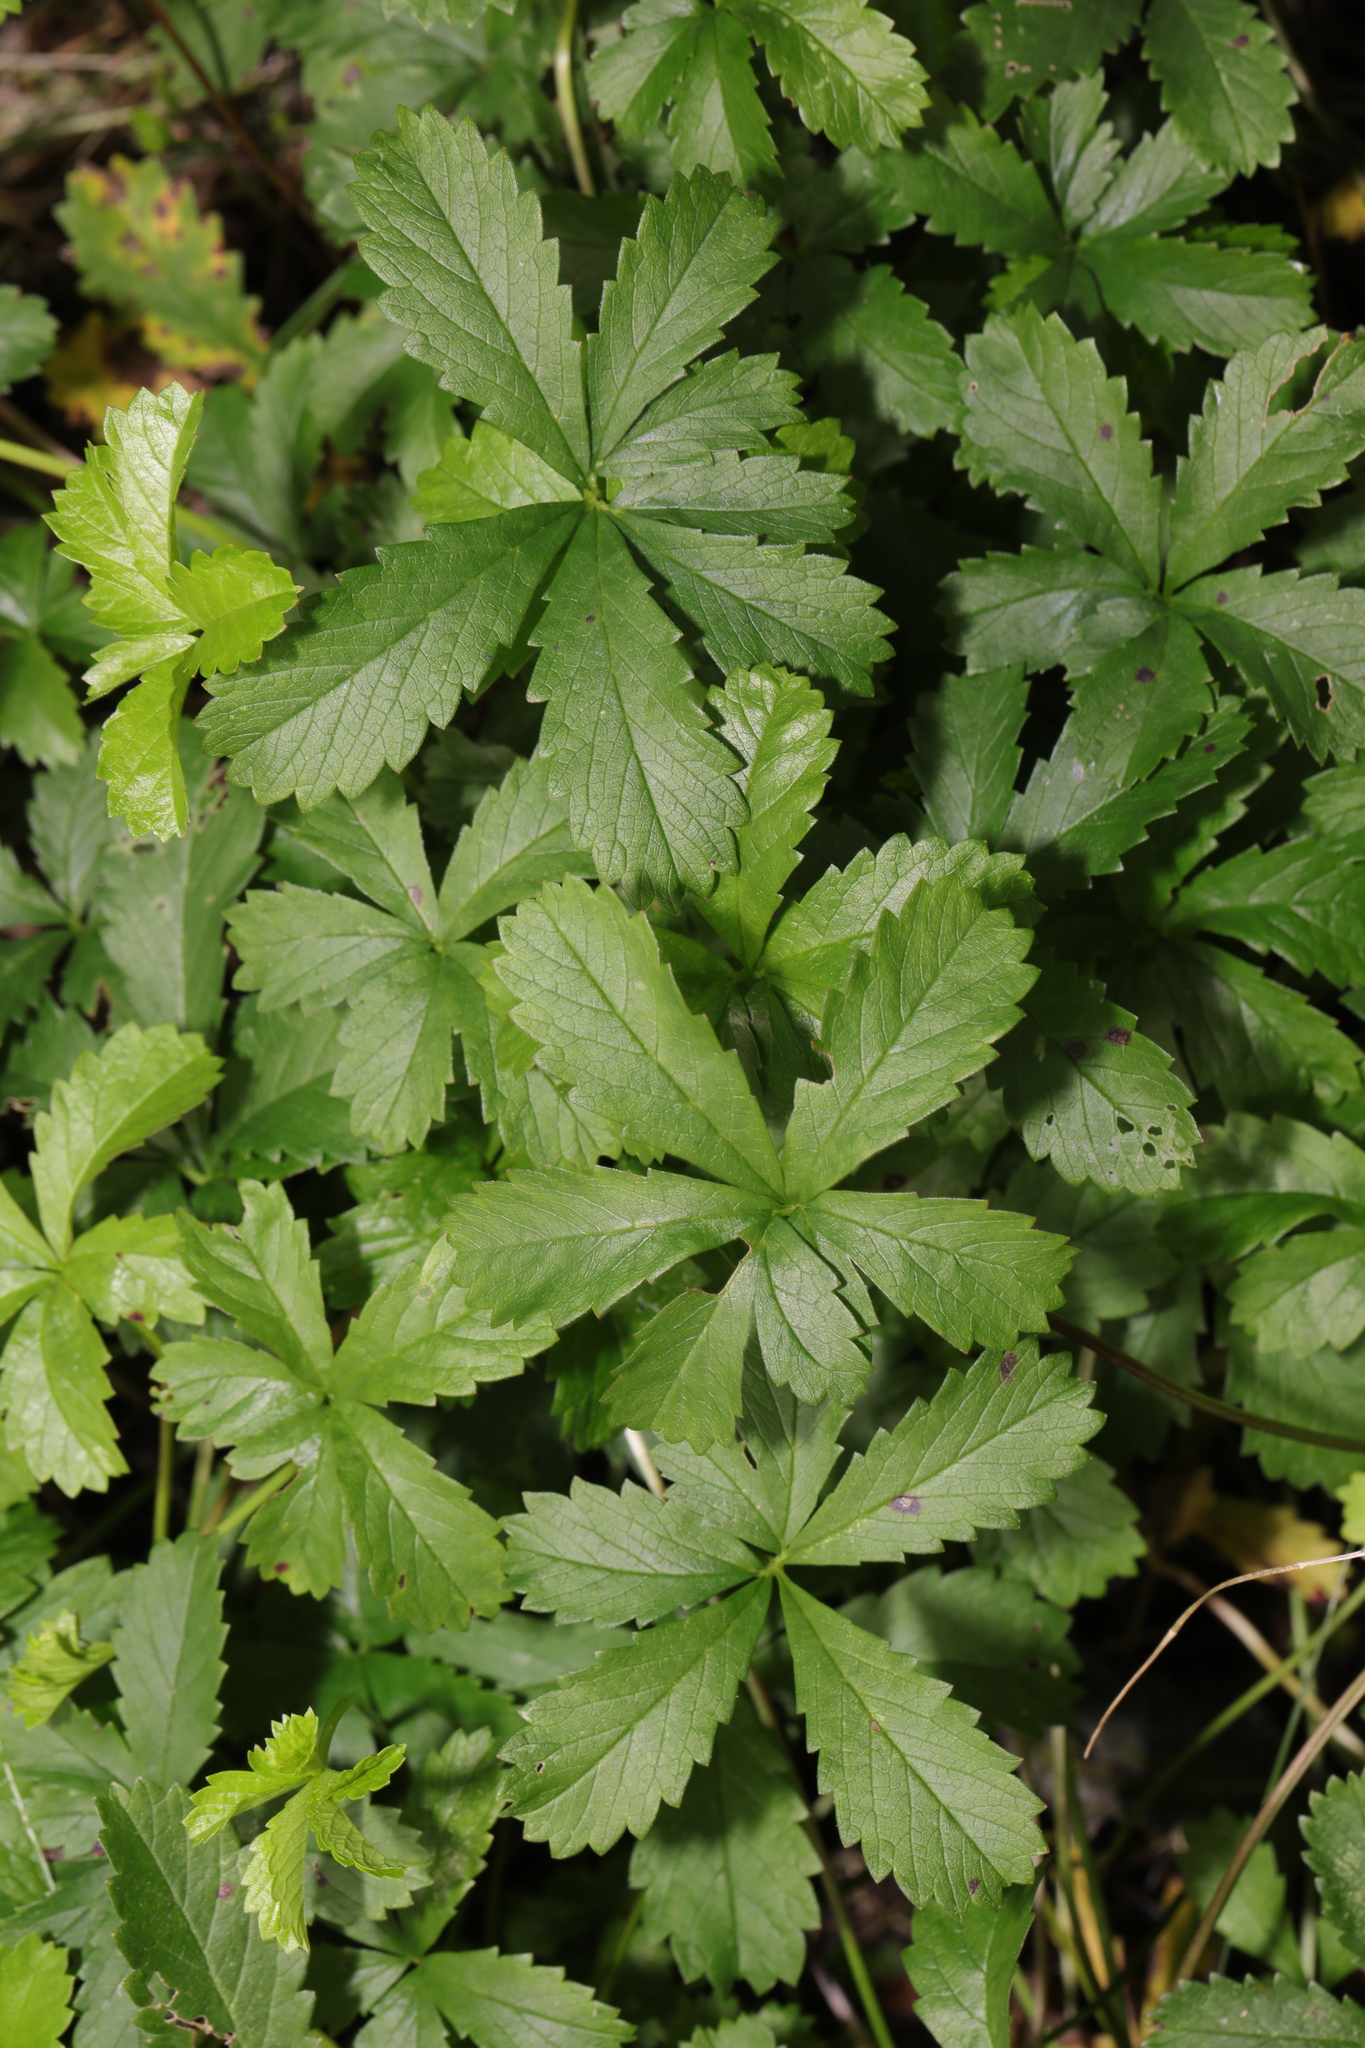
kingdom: Plantae
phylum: Tracheophyta
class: Magnoliopsida
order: Rosales
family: Rosaceae
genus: Potentilla
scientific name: Potentilla reptans
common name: Creeping cinquefoil
